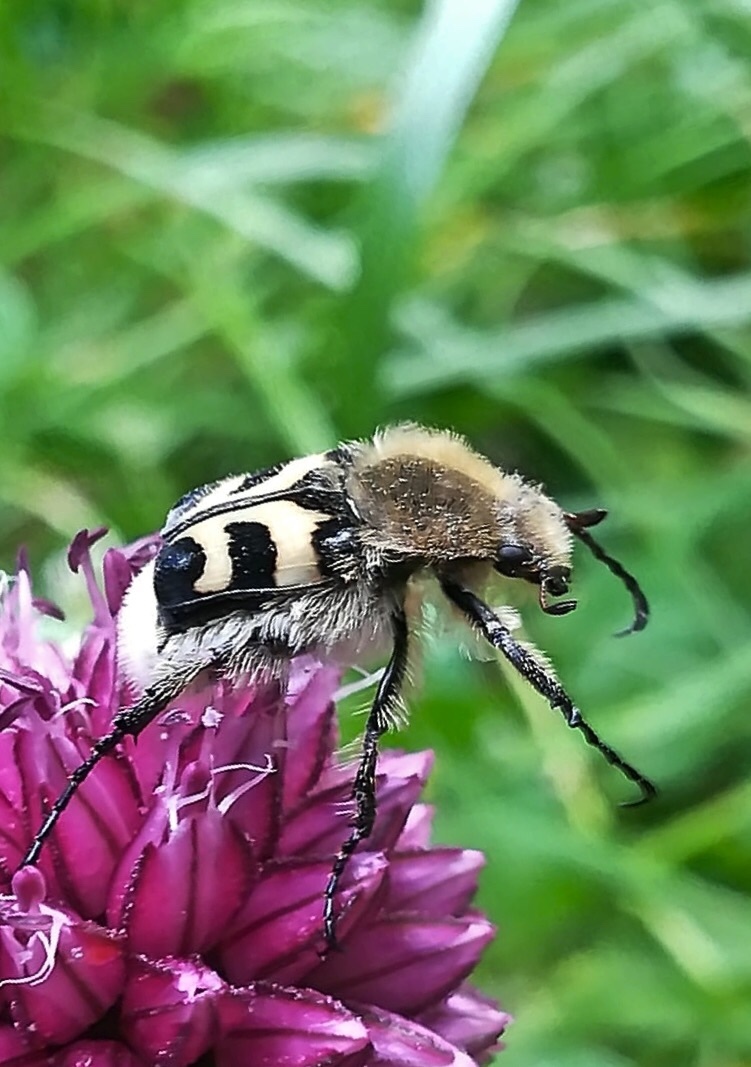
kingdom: Animalia
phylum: Arthropoda
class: Insecta
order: Coleoptera
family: Scarabaeidae
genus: Trichius
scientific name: Trichius fasciatus
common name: Bee beetle
